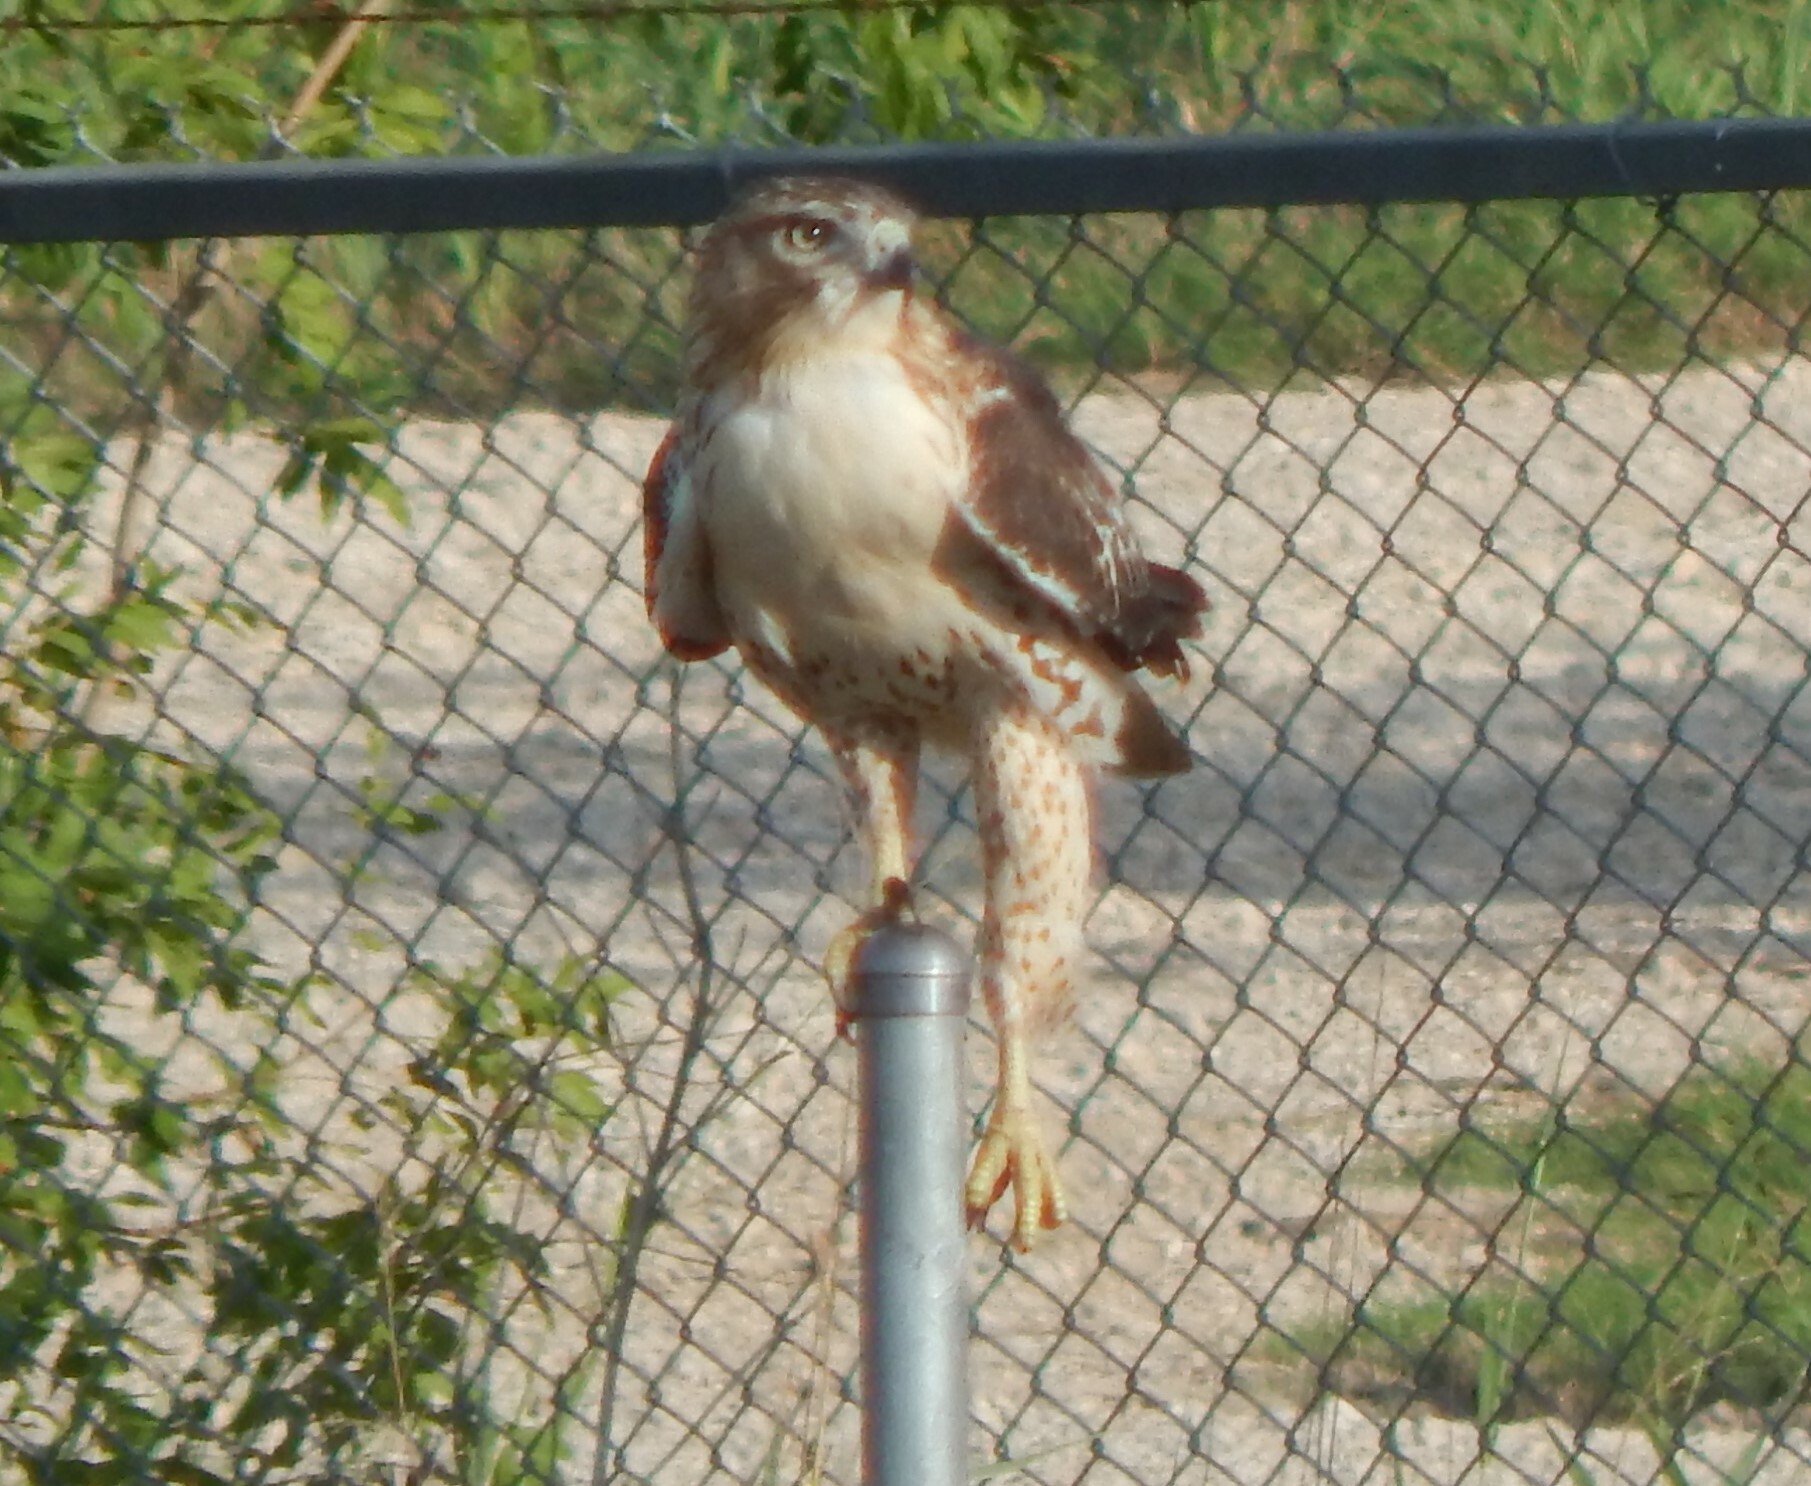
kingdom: Animalia
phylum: Chordata
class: Aves
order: Accipitriformes
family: Accipitridae
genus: Buteo
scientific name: Buteo jamaicensis
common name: Red-tailed hawk
